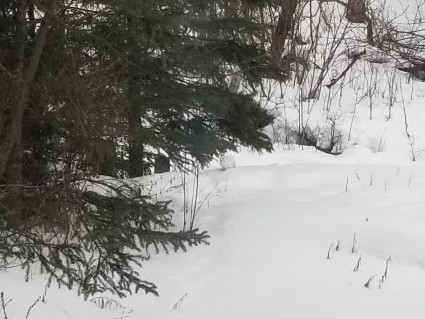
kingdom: Animalia
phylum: Chordata
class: Mammalia
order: Lagomorpha
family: Leporidae
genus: Lepus
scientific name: Lepus americanus
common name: Snowshoe hare
